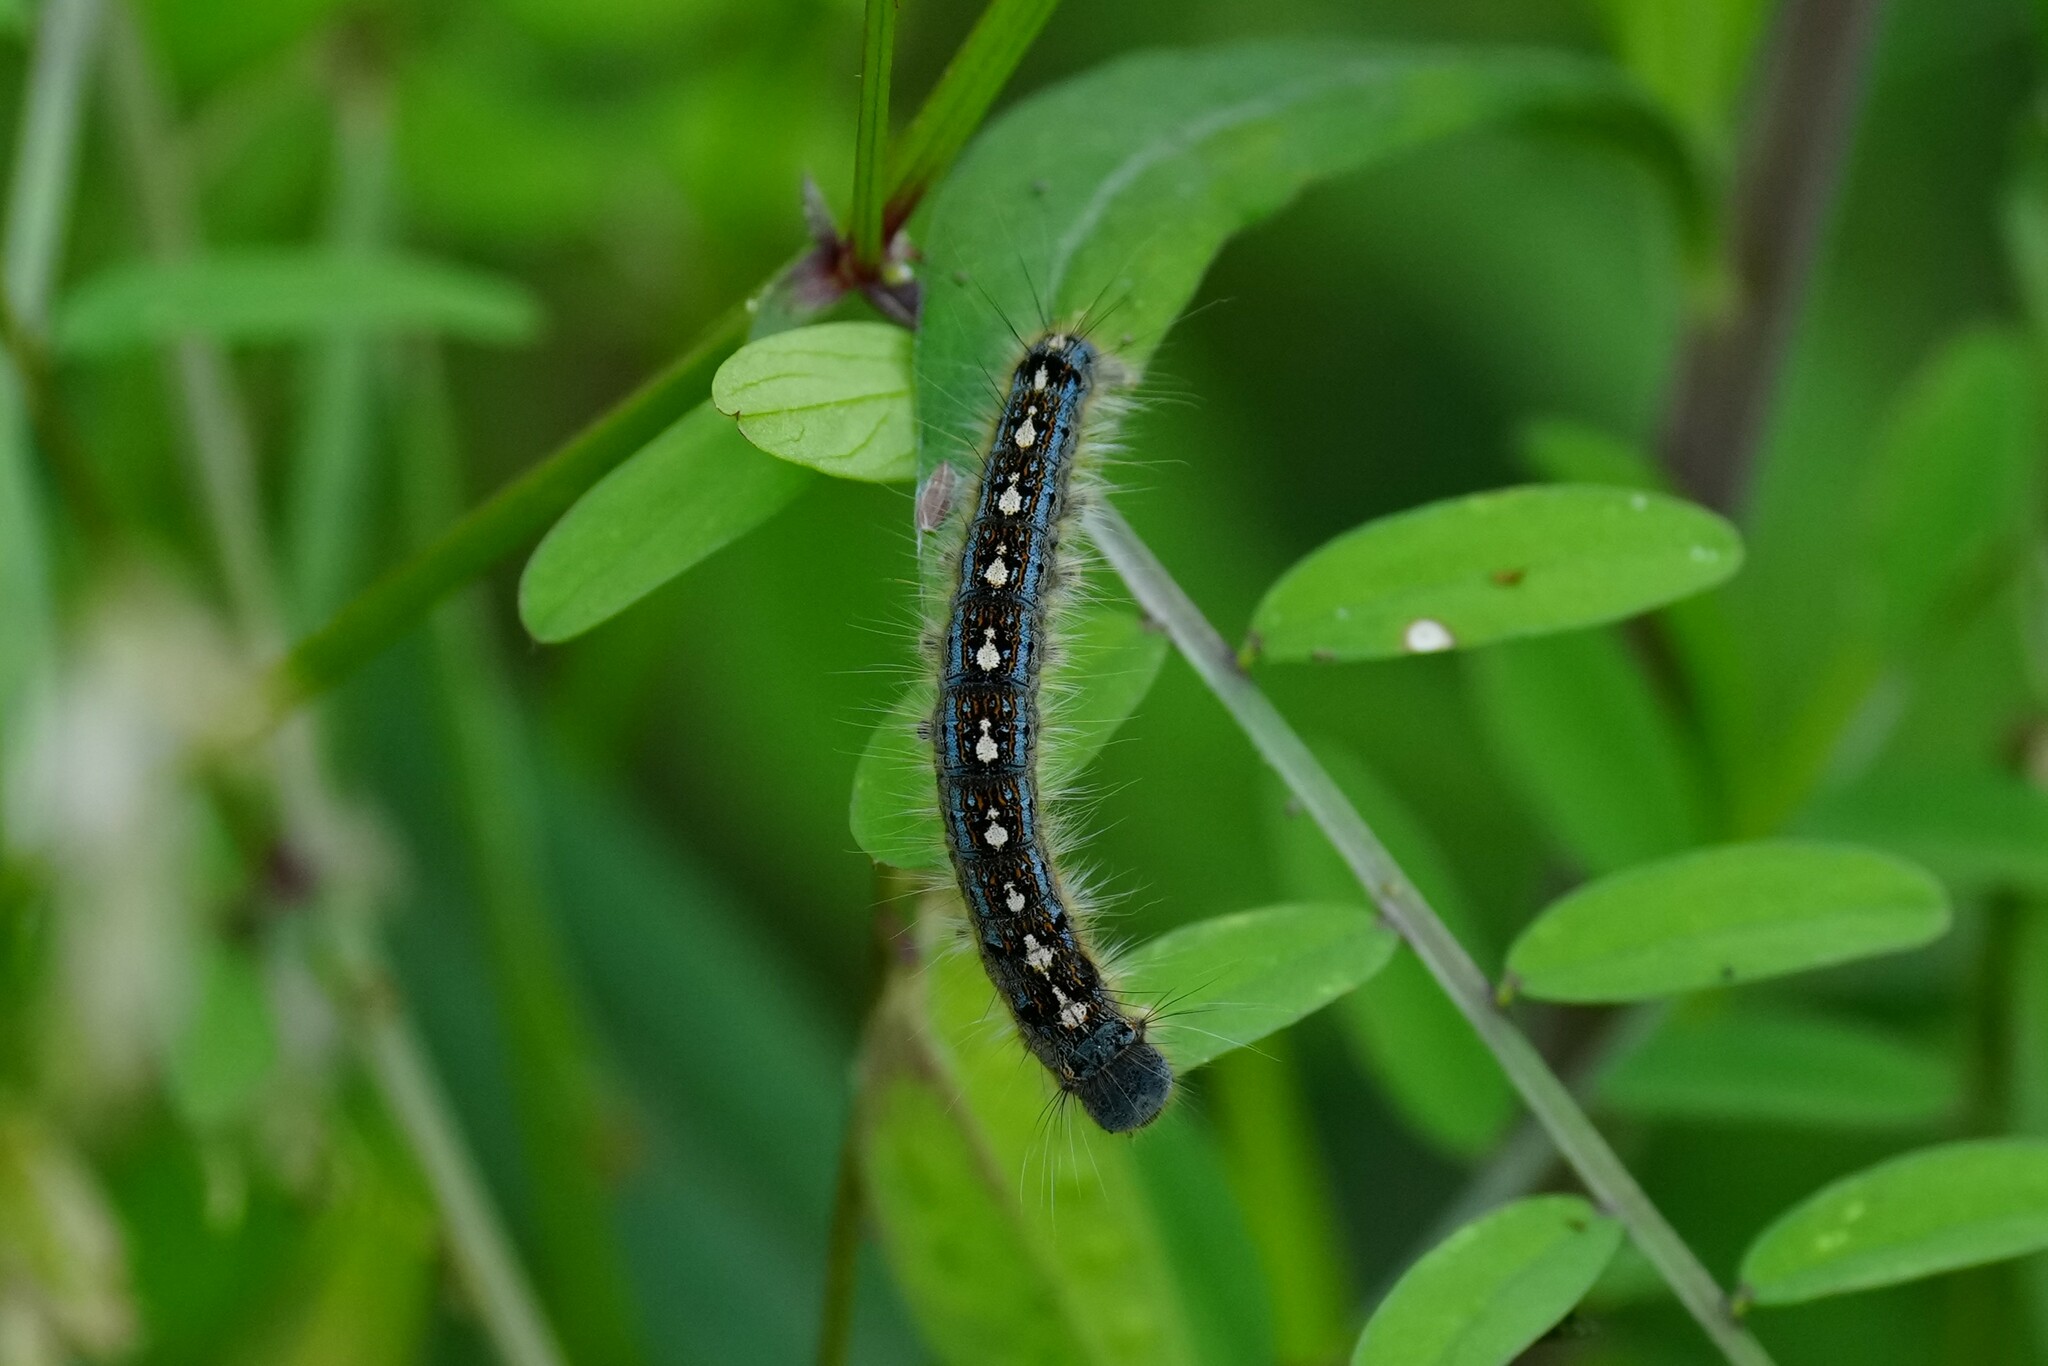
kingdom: Animalia
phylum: Arthropoda
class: Insecta
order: Lepidoptera
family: Lasiocampidae
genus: Malacosoma
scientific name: Malacosoma disstria
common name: Forest tent caterpillar
